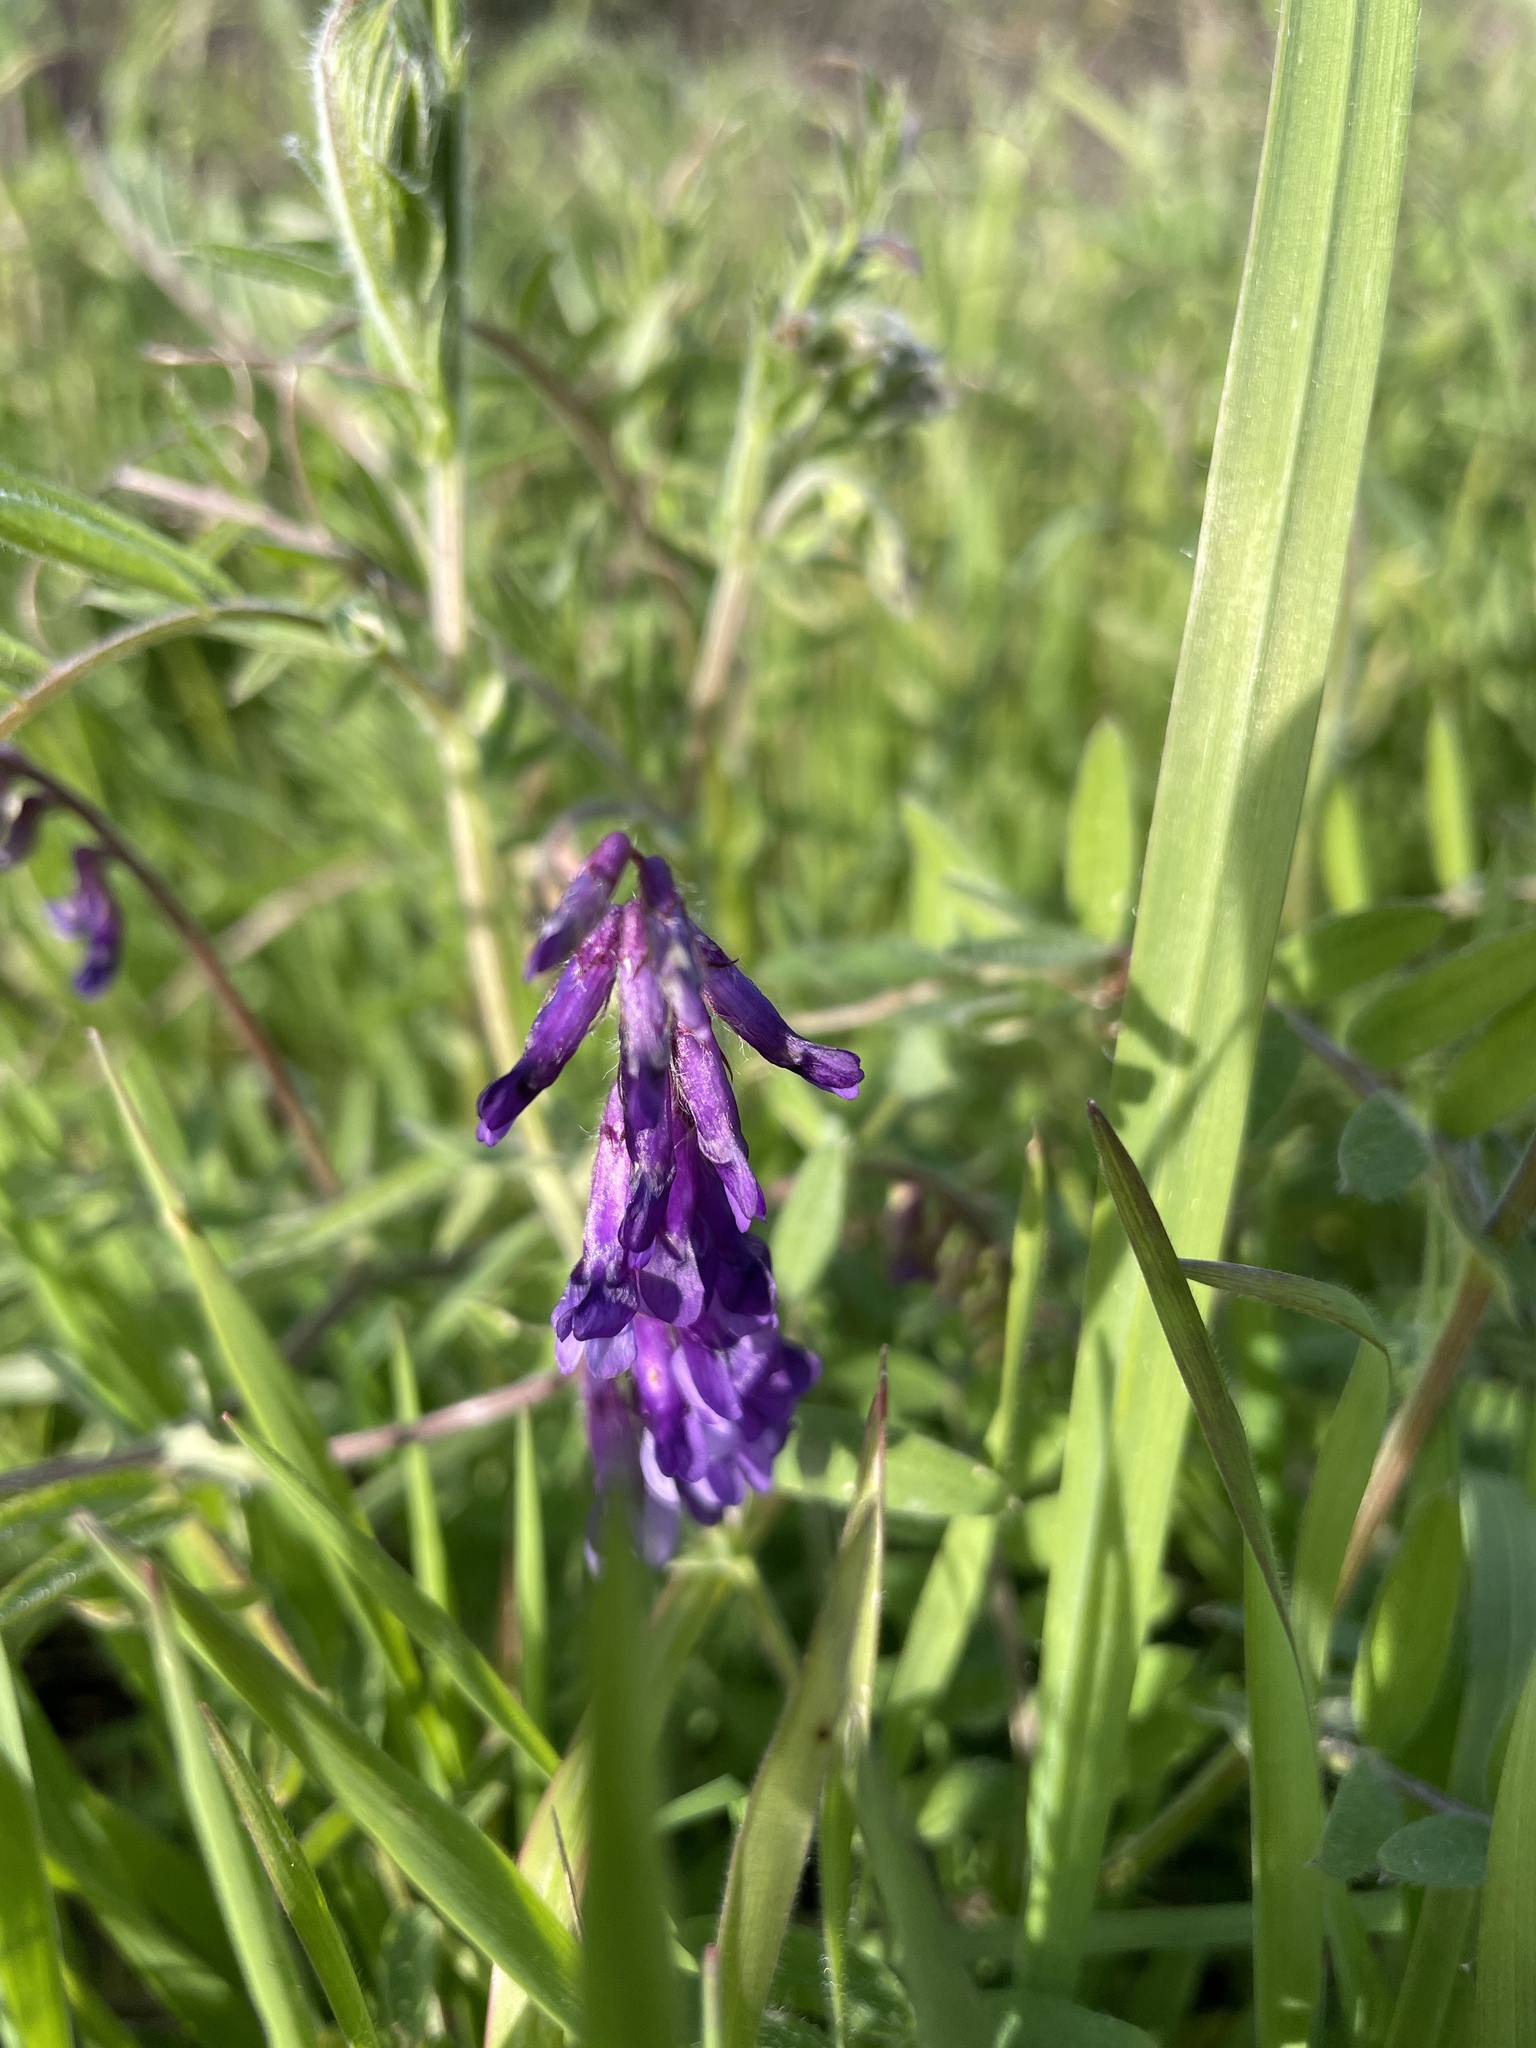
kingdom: Plantae
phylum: Tracheophyta
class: Magnoliopsida
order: Fabales
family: Fabaceae
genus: Vicia
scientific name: Vicia villosa
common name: Fodder vetch
